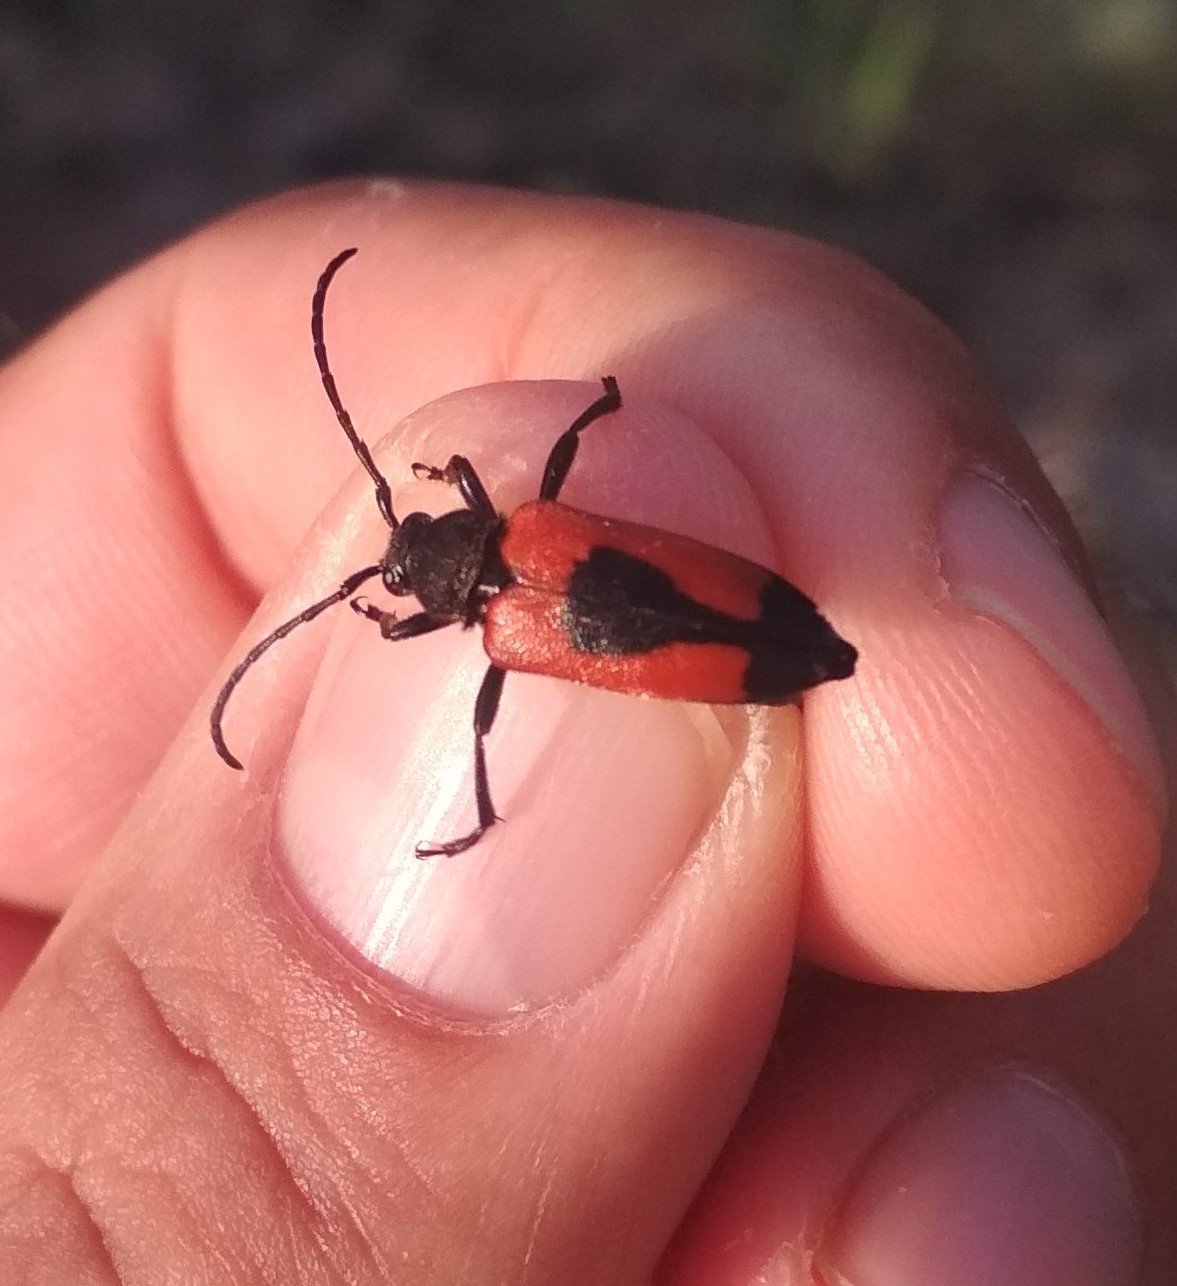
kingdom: Animalia
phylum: Arthropoda
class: Insecta
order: Coleoptera
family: Cerambycidae
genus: Stictoleptura
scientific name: Stictoleptura cordigera
